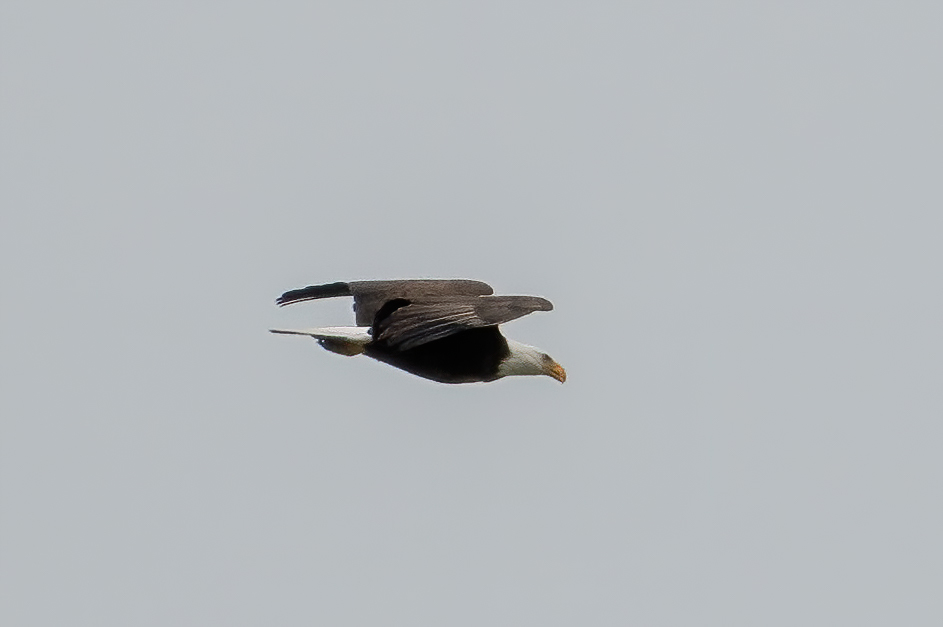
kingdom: Animalia
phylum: Chordata
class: Aves
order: Accipitriformes
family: Accipitridae
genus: Haliaeetus
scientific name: Haliaeetus leucocephalus
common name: Bald eagle
